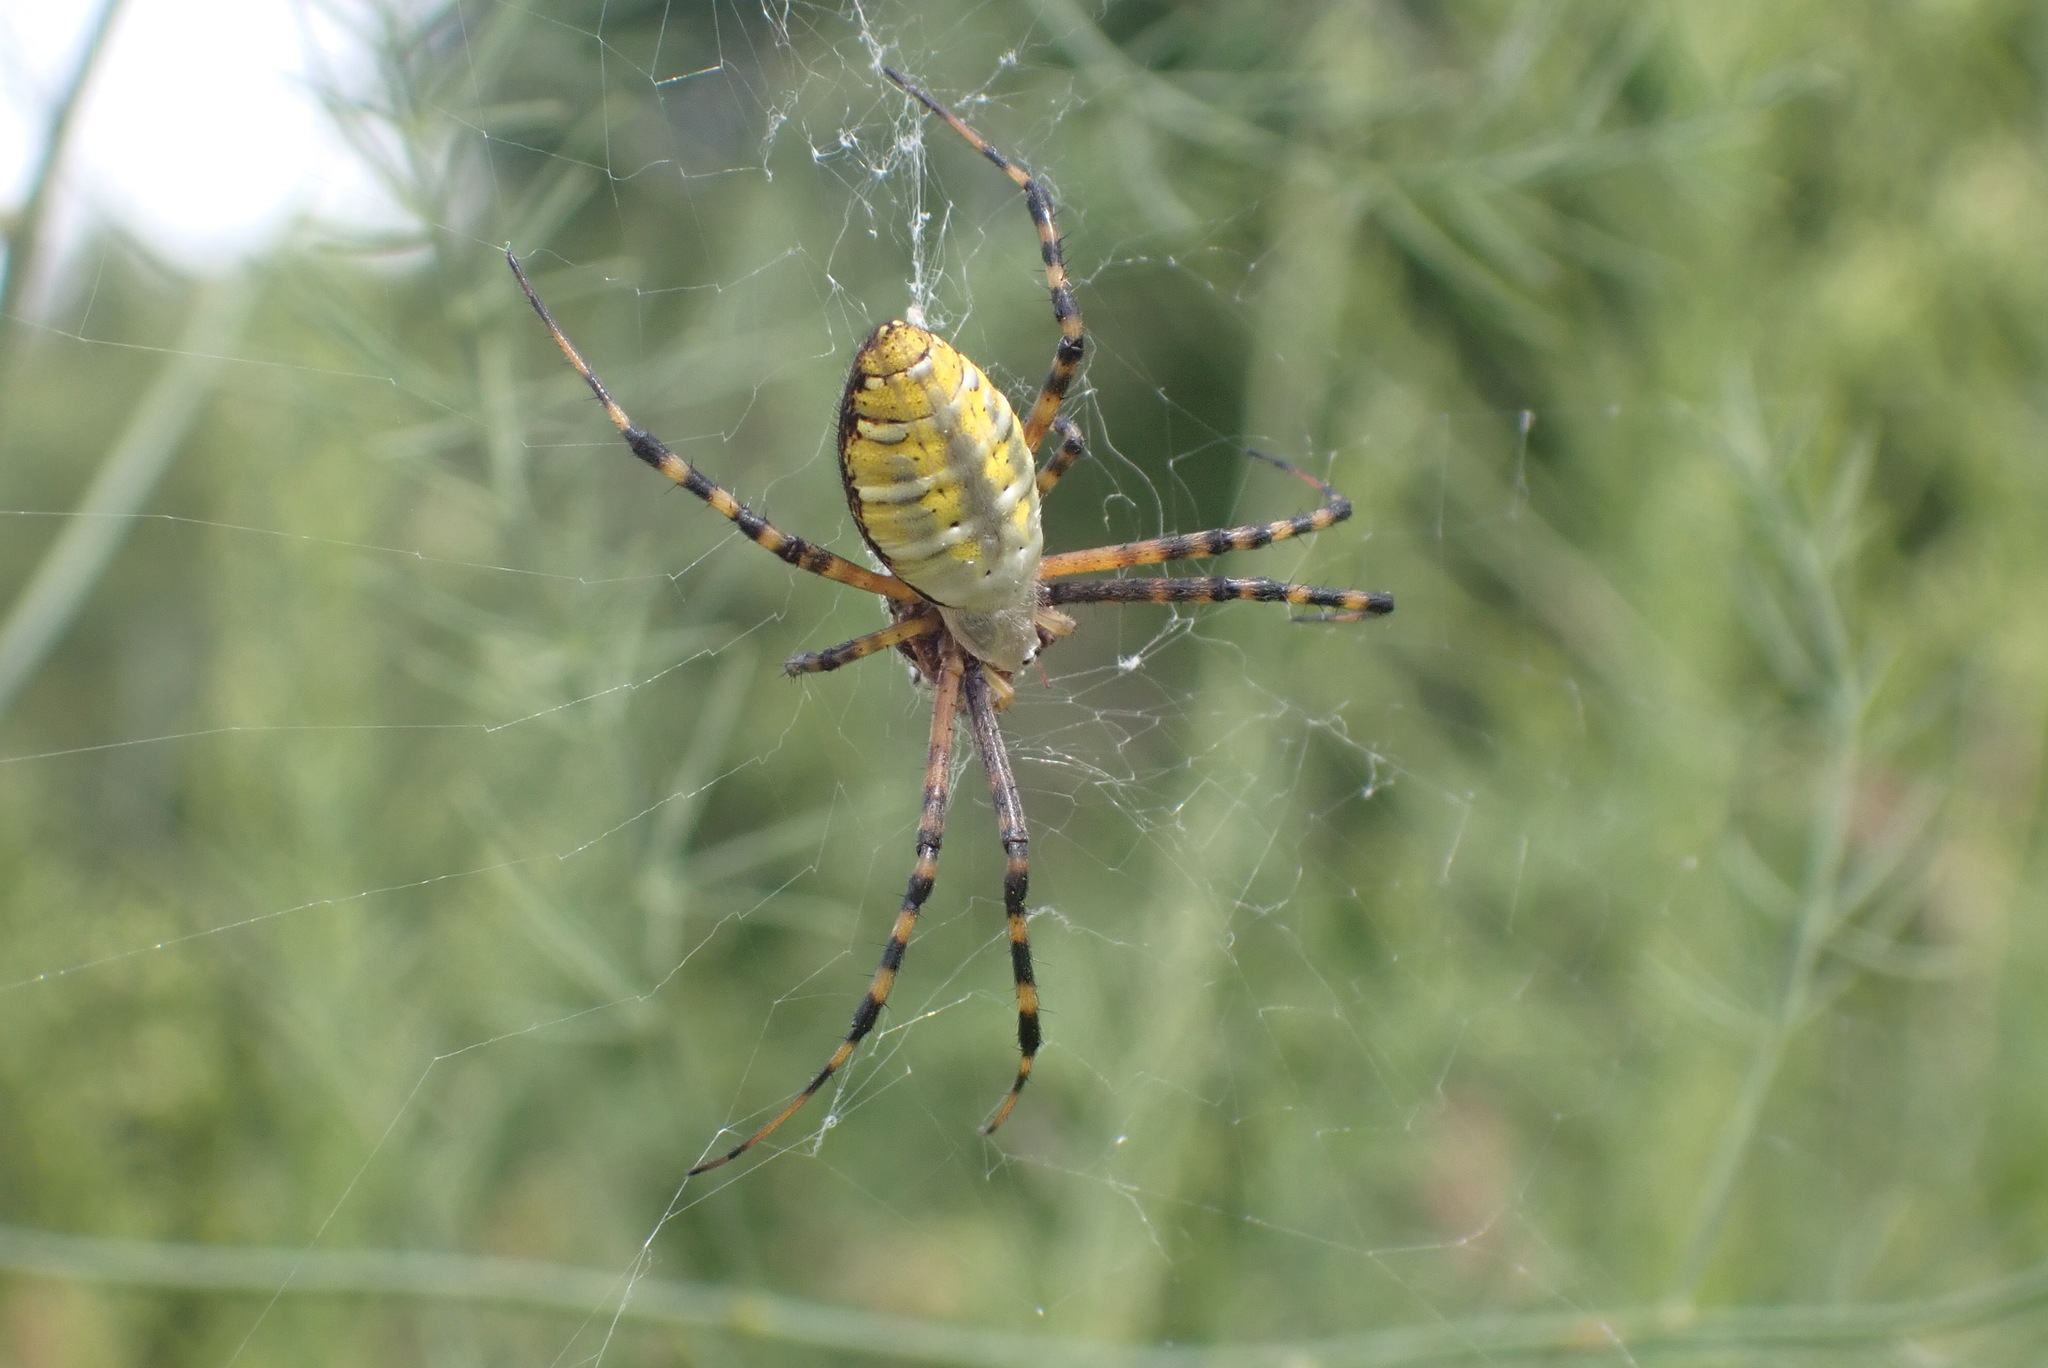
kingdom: Animalia
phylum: Arthropoda
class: Arachnida
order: Araneae
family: Araneidae
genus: Argiope
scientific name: Argiope trifasciata
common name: Banded garden spider
